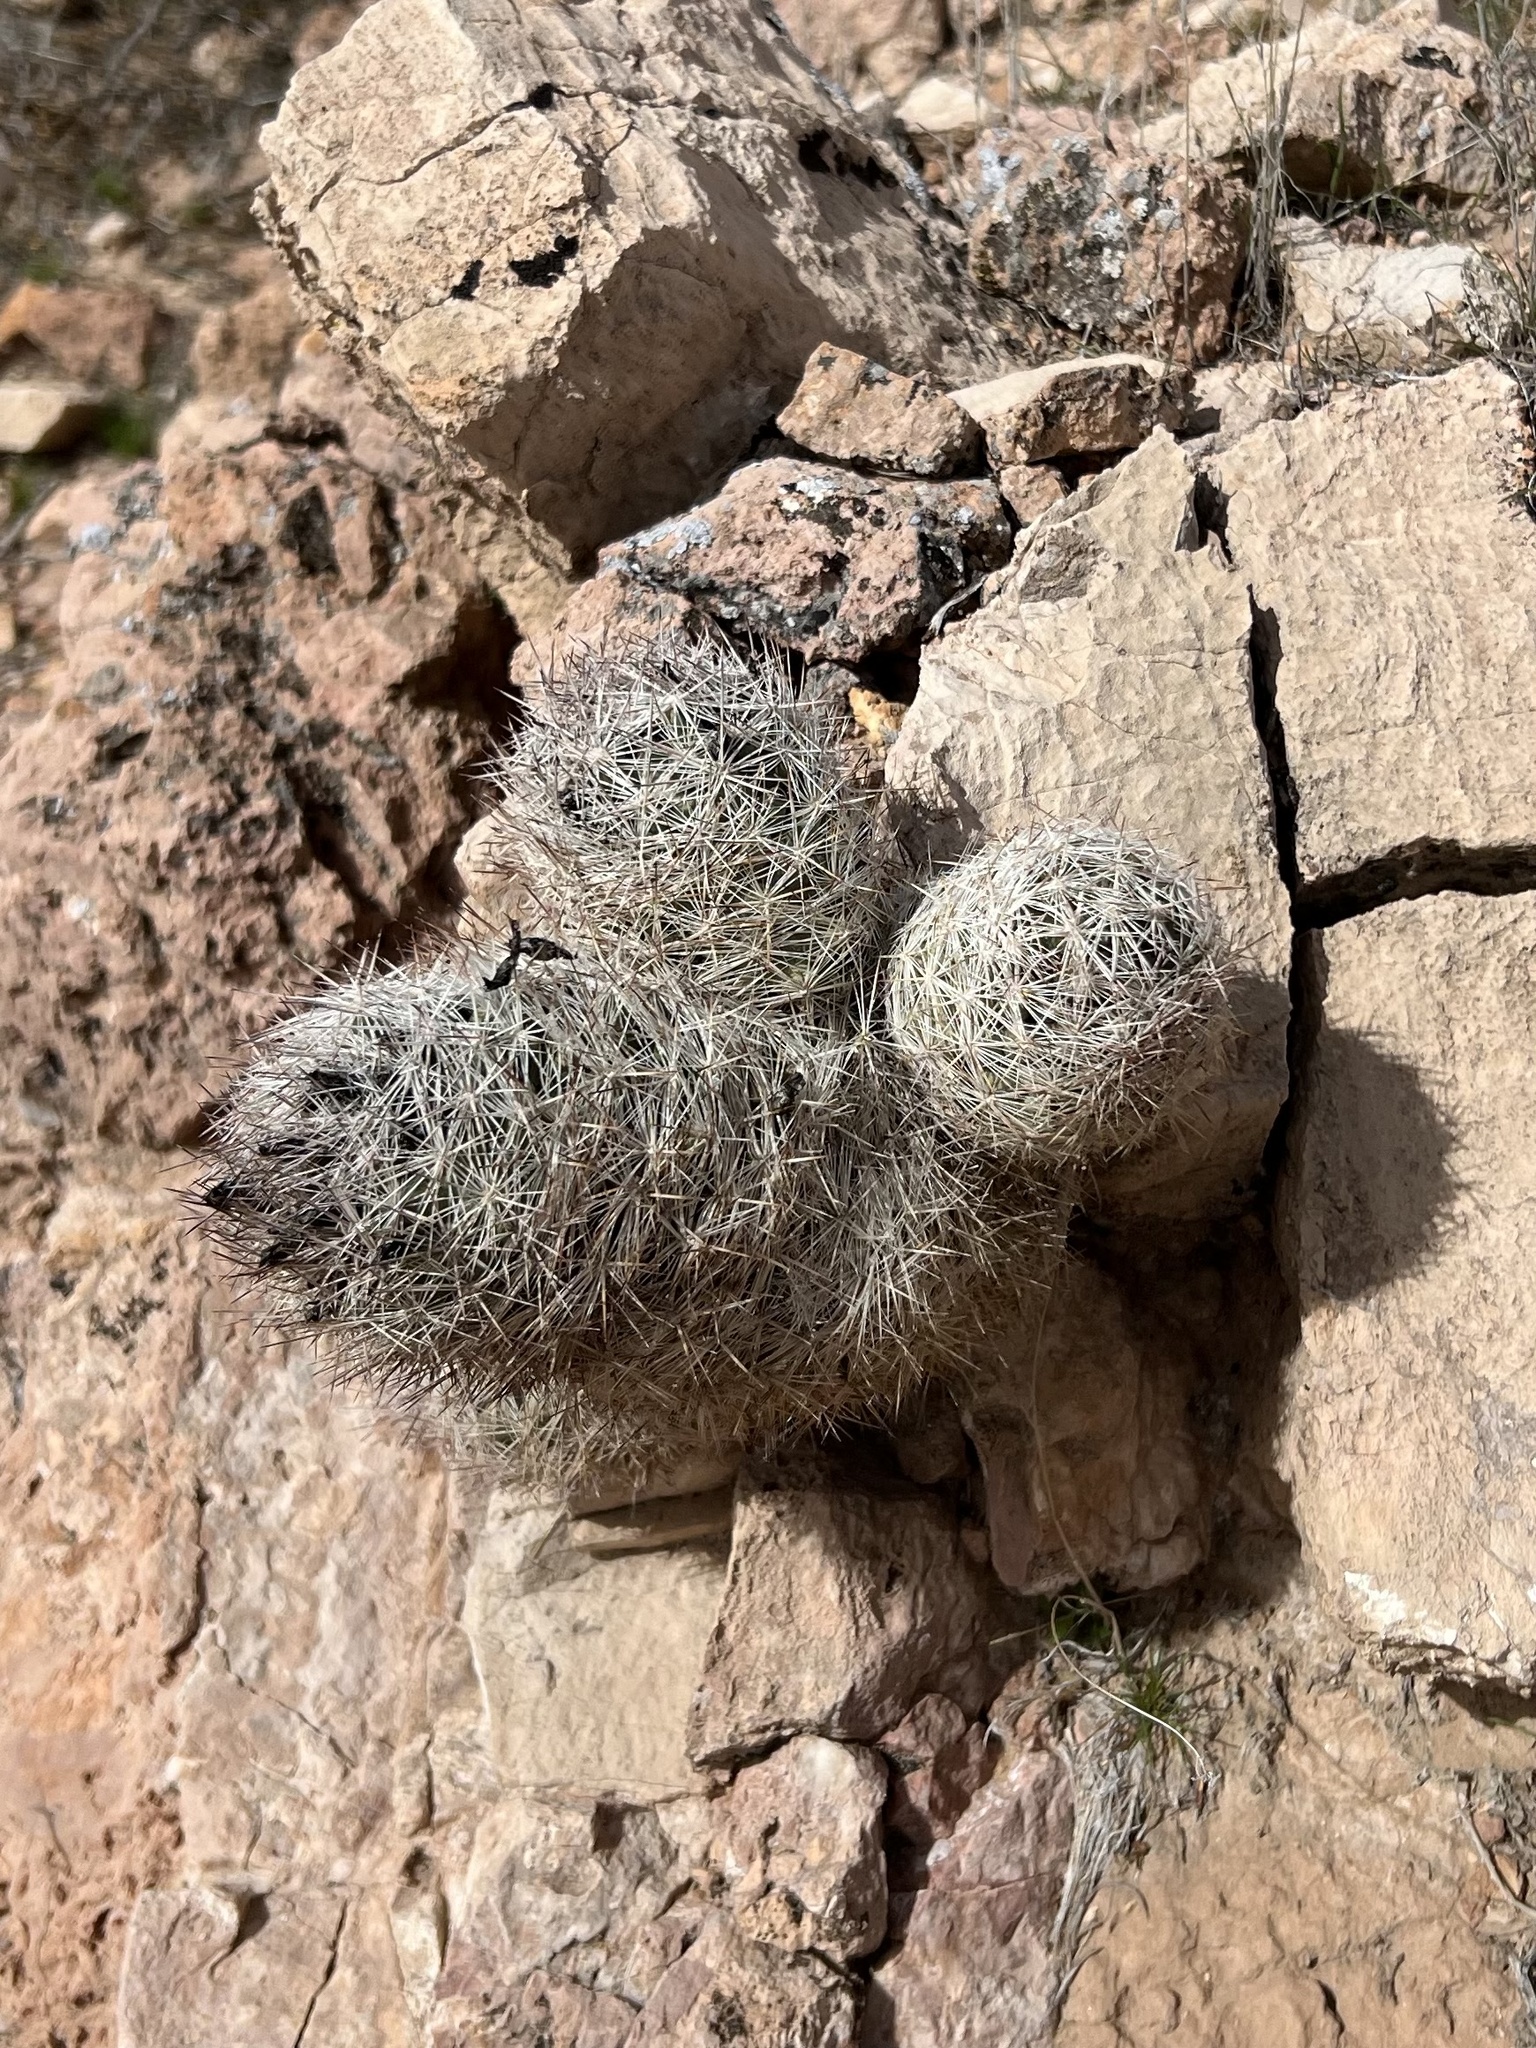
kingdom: Plantae
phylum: Tracheophyta
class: Magnoliopsida
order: Caryophyllales
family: Cactaceae
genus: Pelecyphora
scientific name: Pelecyphora dasyacantha
